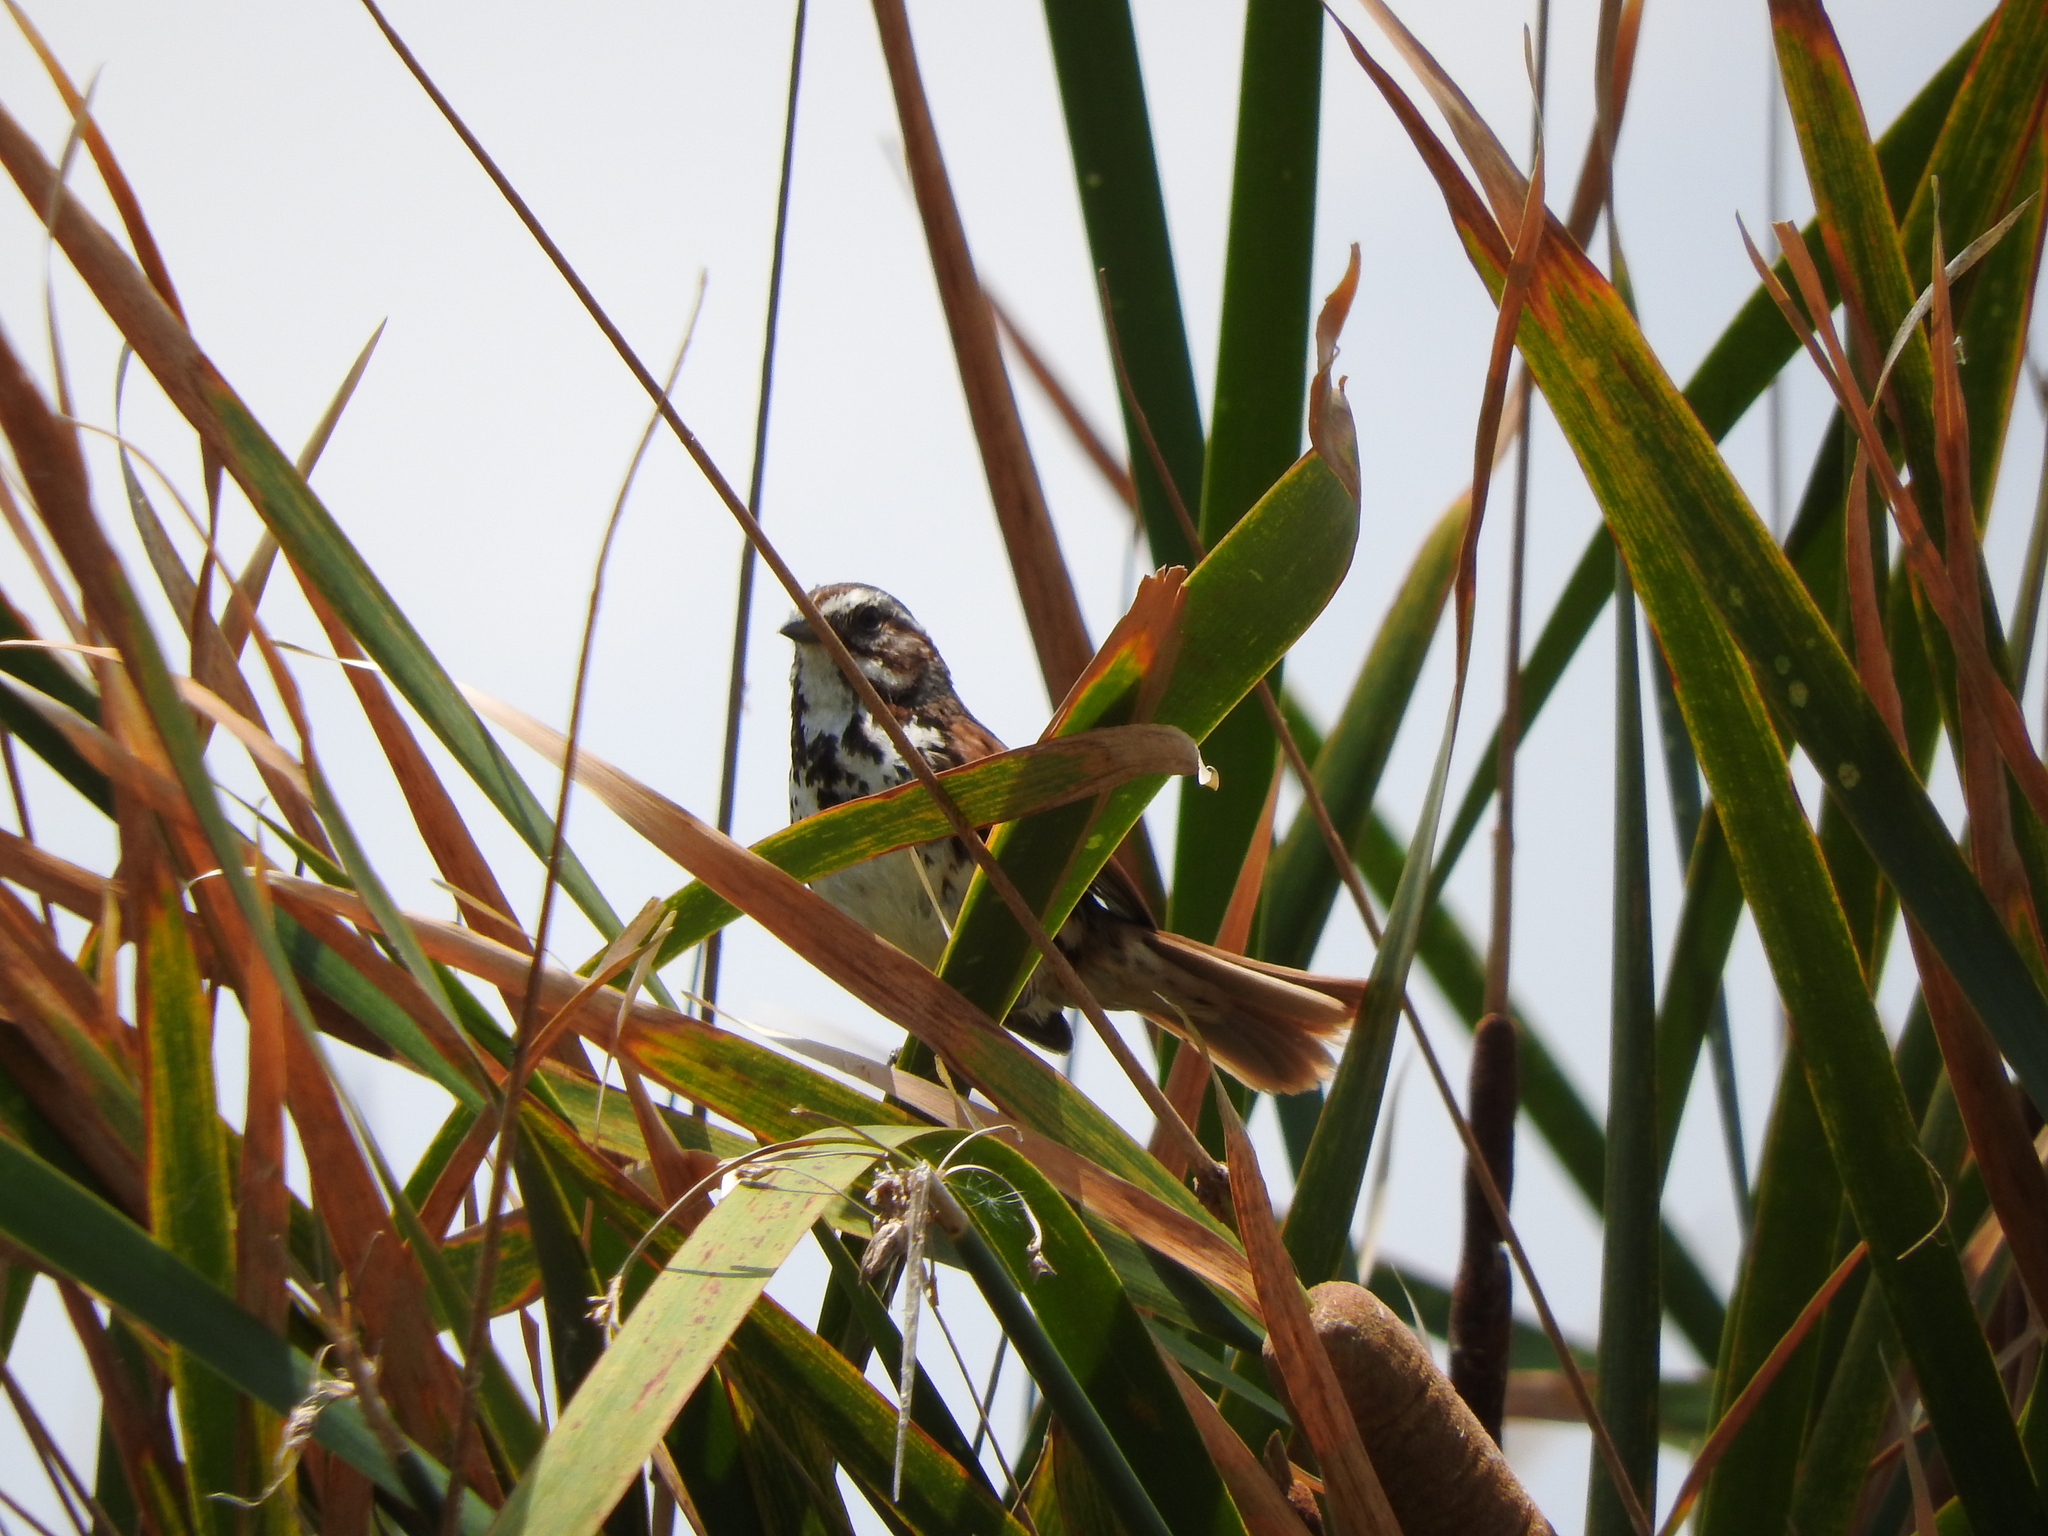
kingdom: Animalia
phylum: Chordata
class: Aves
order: Passeriformes
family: Passerellidae
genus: Melospiza
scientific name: Melospiza melodia
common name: Song sparrow
